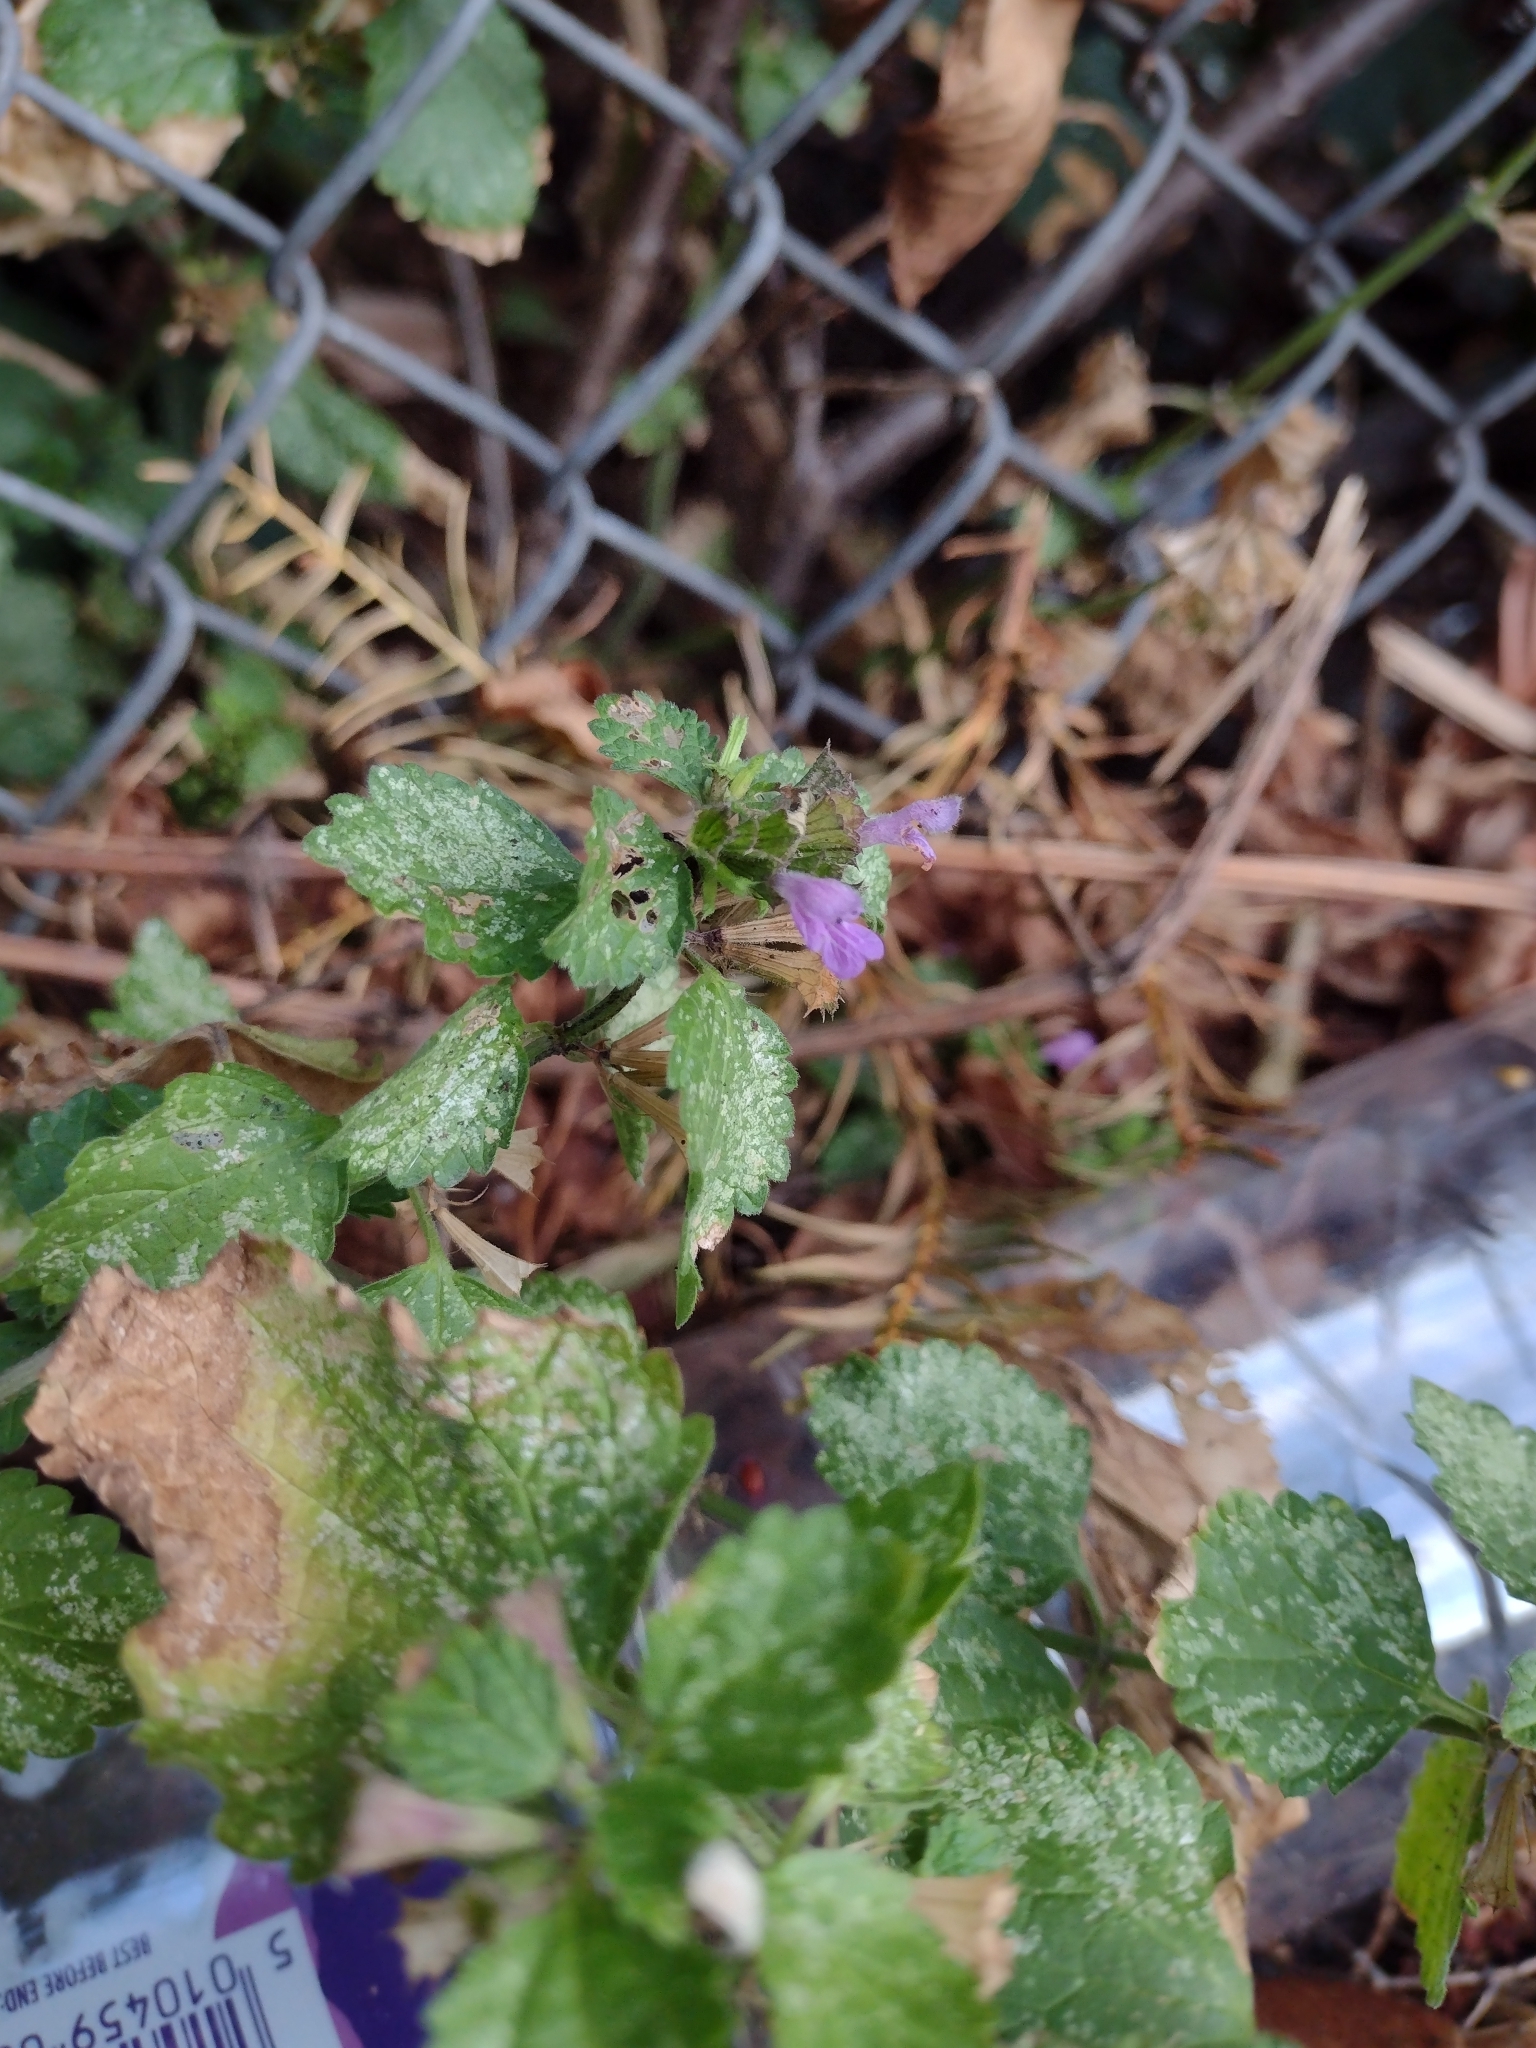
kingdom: Plantae
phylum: Tracheophyta
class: Magnoliopsida
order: Lamiales
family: Lamiaceae
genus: Ballota
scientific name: Ballota nigra
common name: Black horehound
